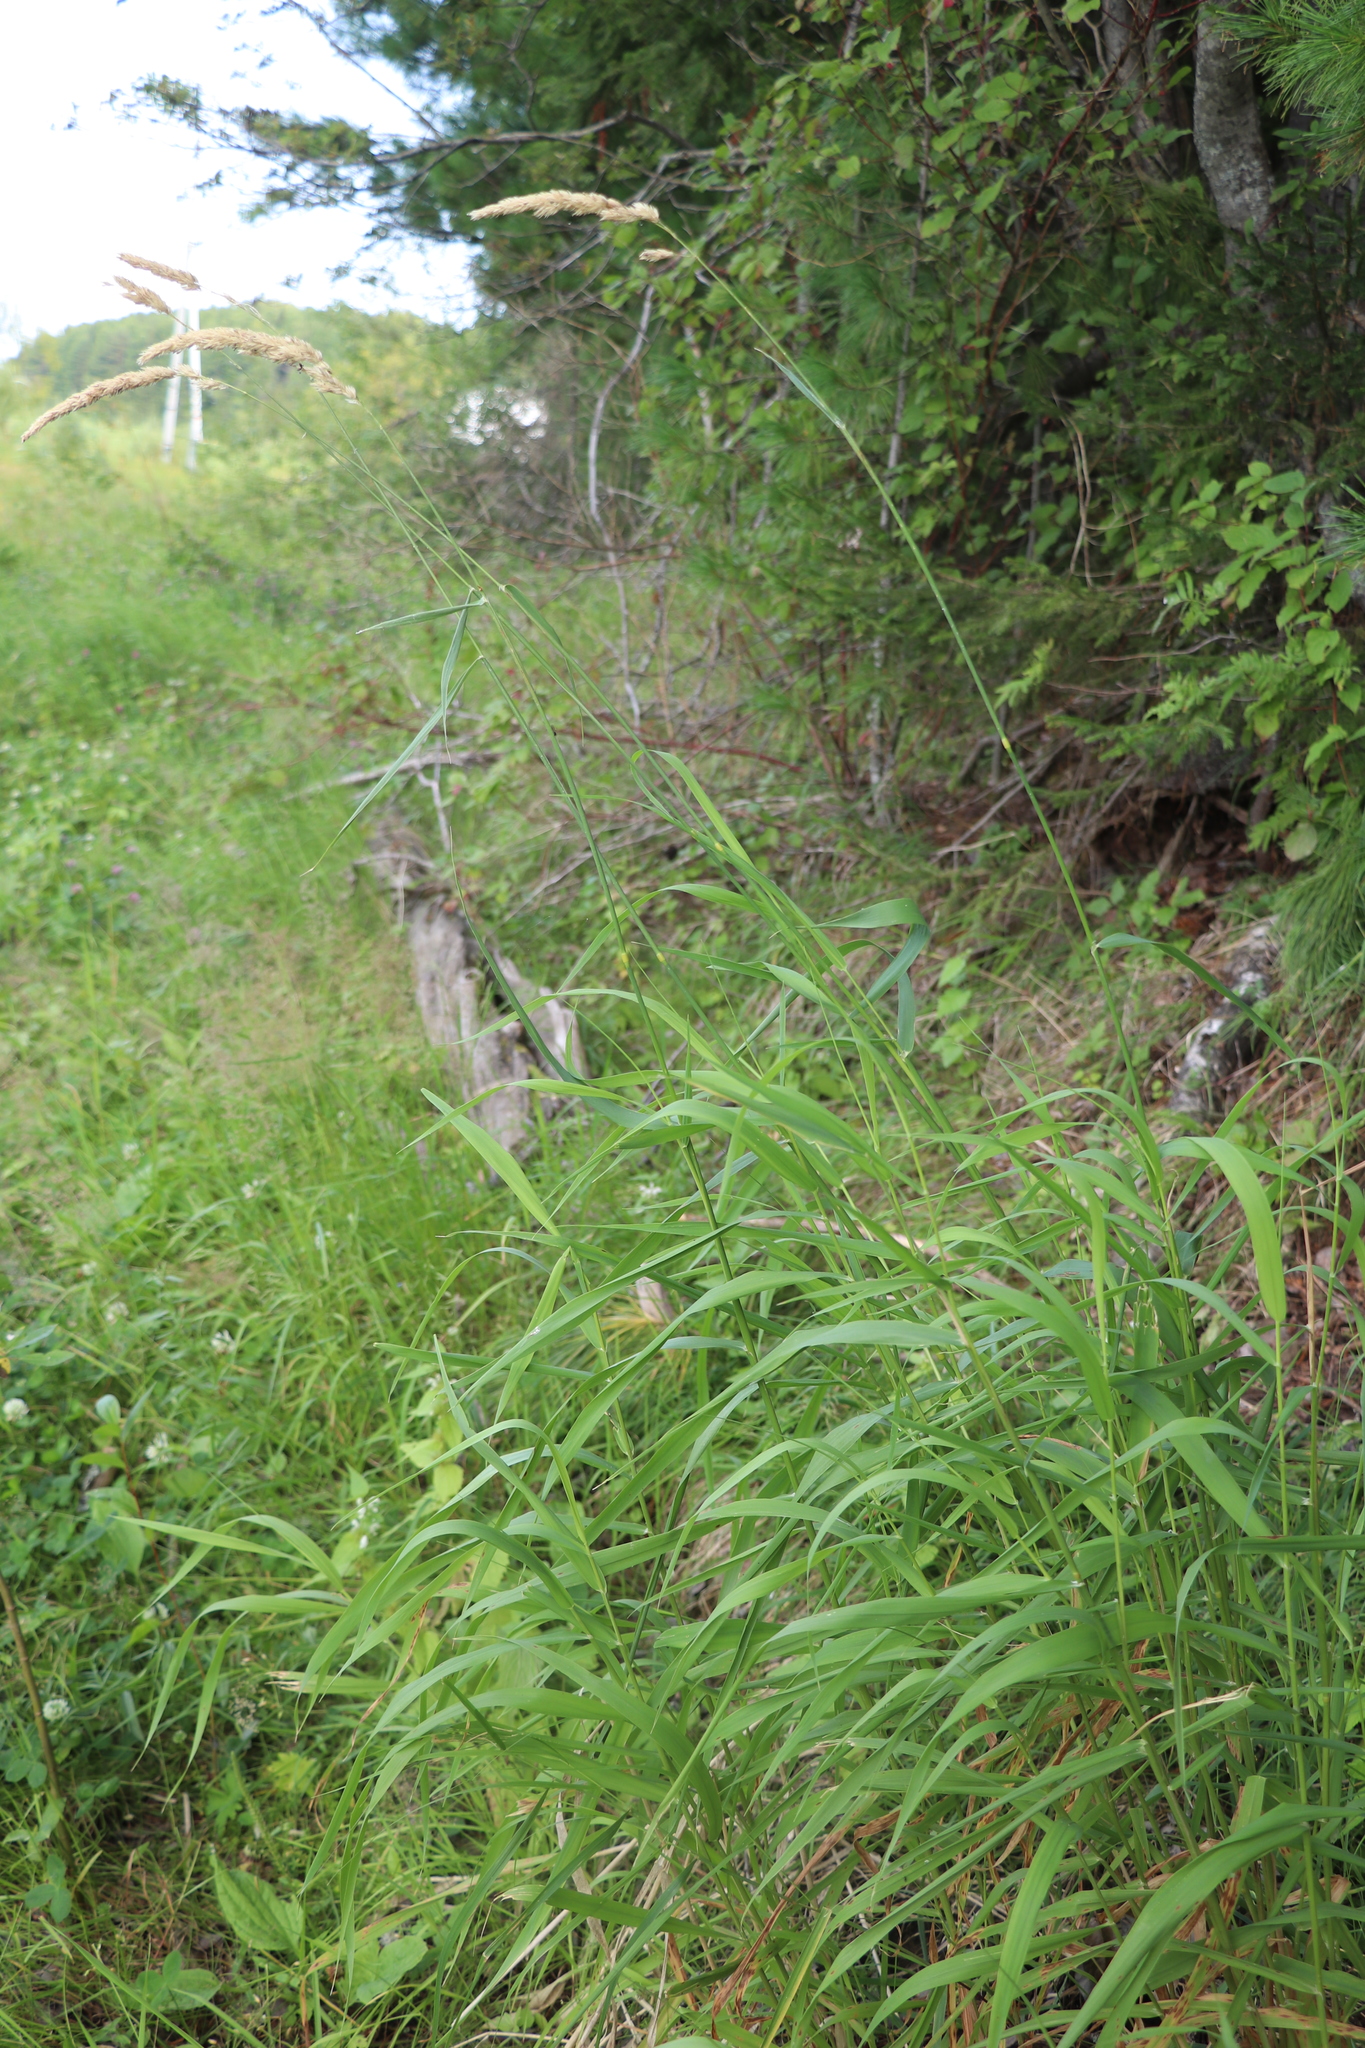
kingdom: Plantae
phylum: Tracheophyta
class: Liliopsida
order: Poales
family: Poaceae
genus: Phalaris
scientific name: Phalaris arundinacea
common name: Reed canary-grass
